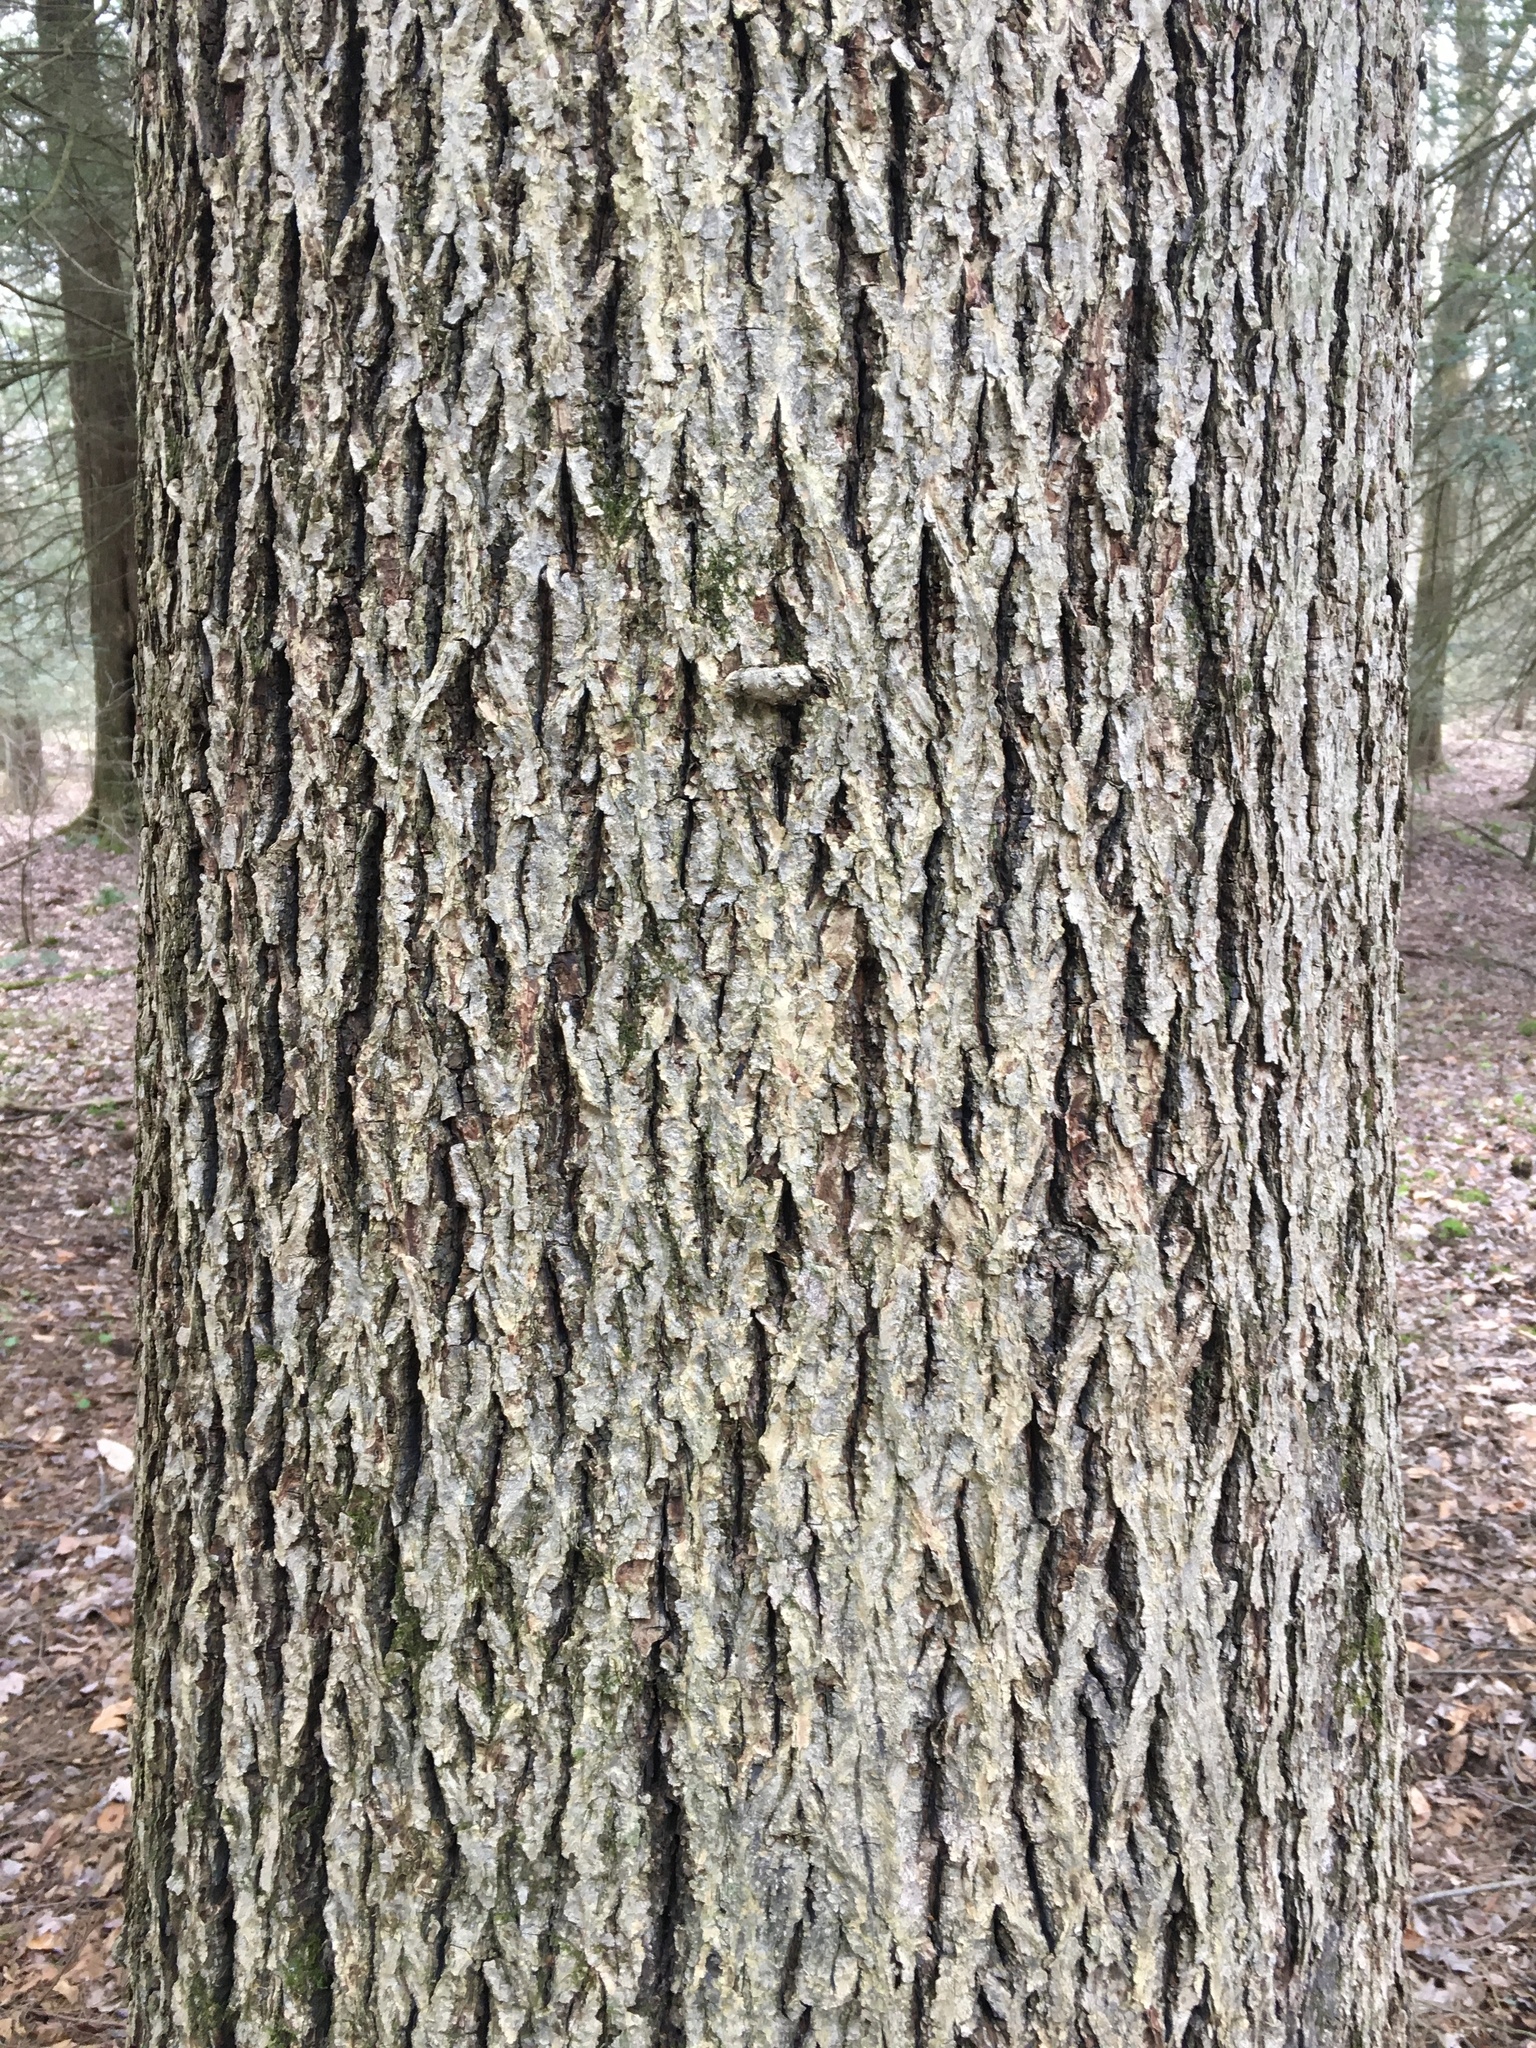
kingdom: Plantae
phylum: Tracheophyta
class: Magnoliopsida
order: Fagales
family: Juglandaceae
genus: Carya
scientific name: Carya cordiformis
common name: Bitternut hickory
